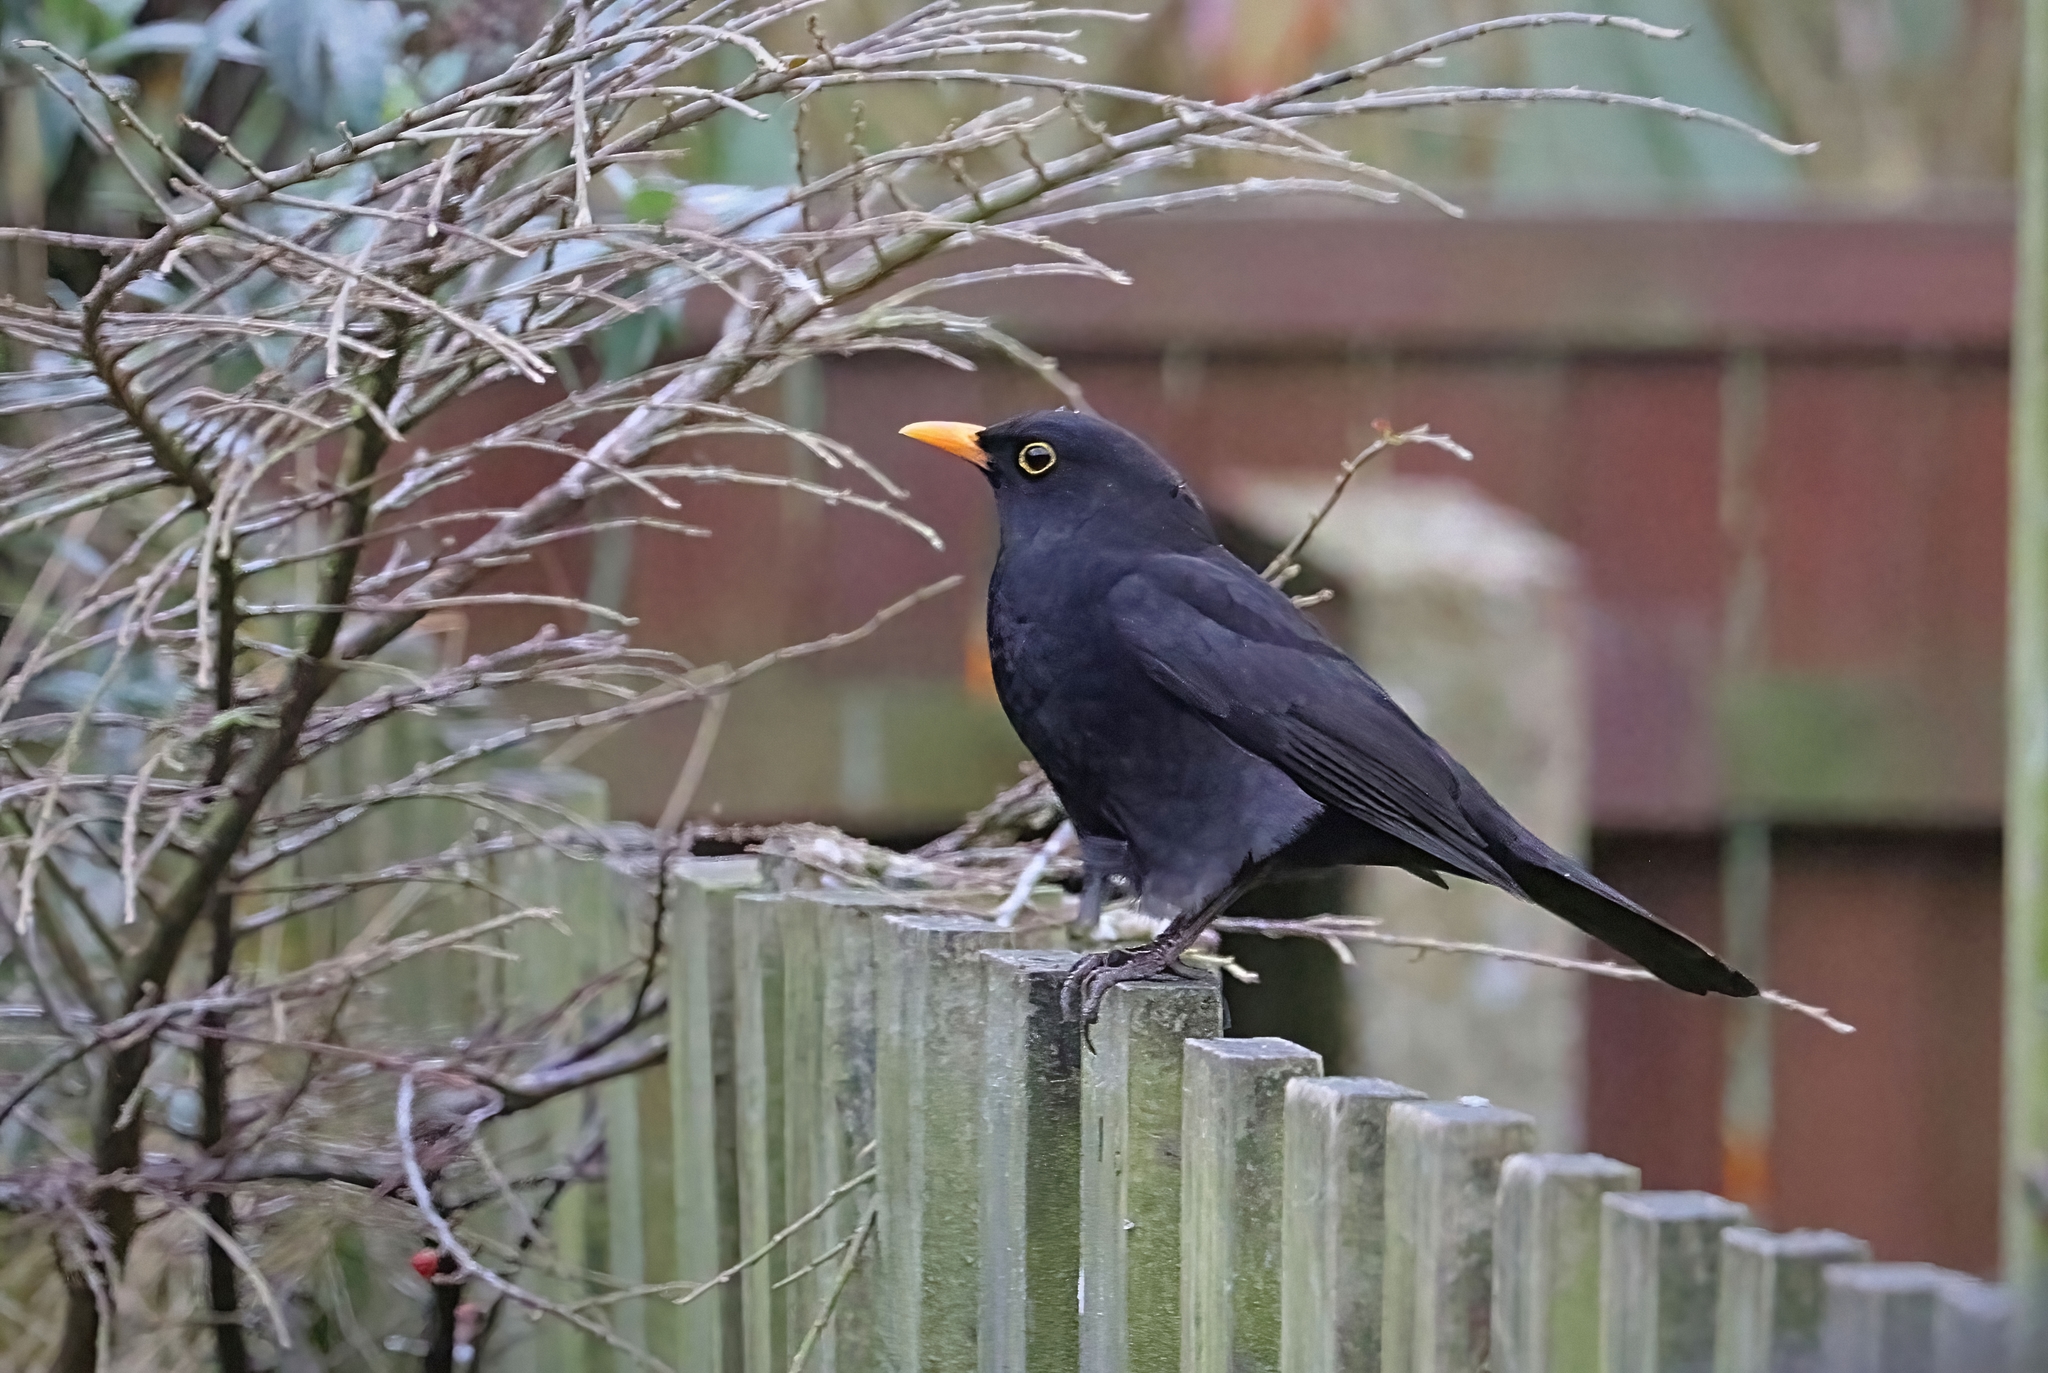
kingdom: Animalia
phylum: Chordata
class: Aves
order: Passeriformes
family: Turdidae
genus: Turdus
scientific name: Turdus merula
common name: Common blackbird
